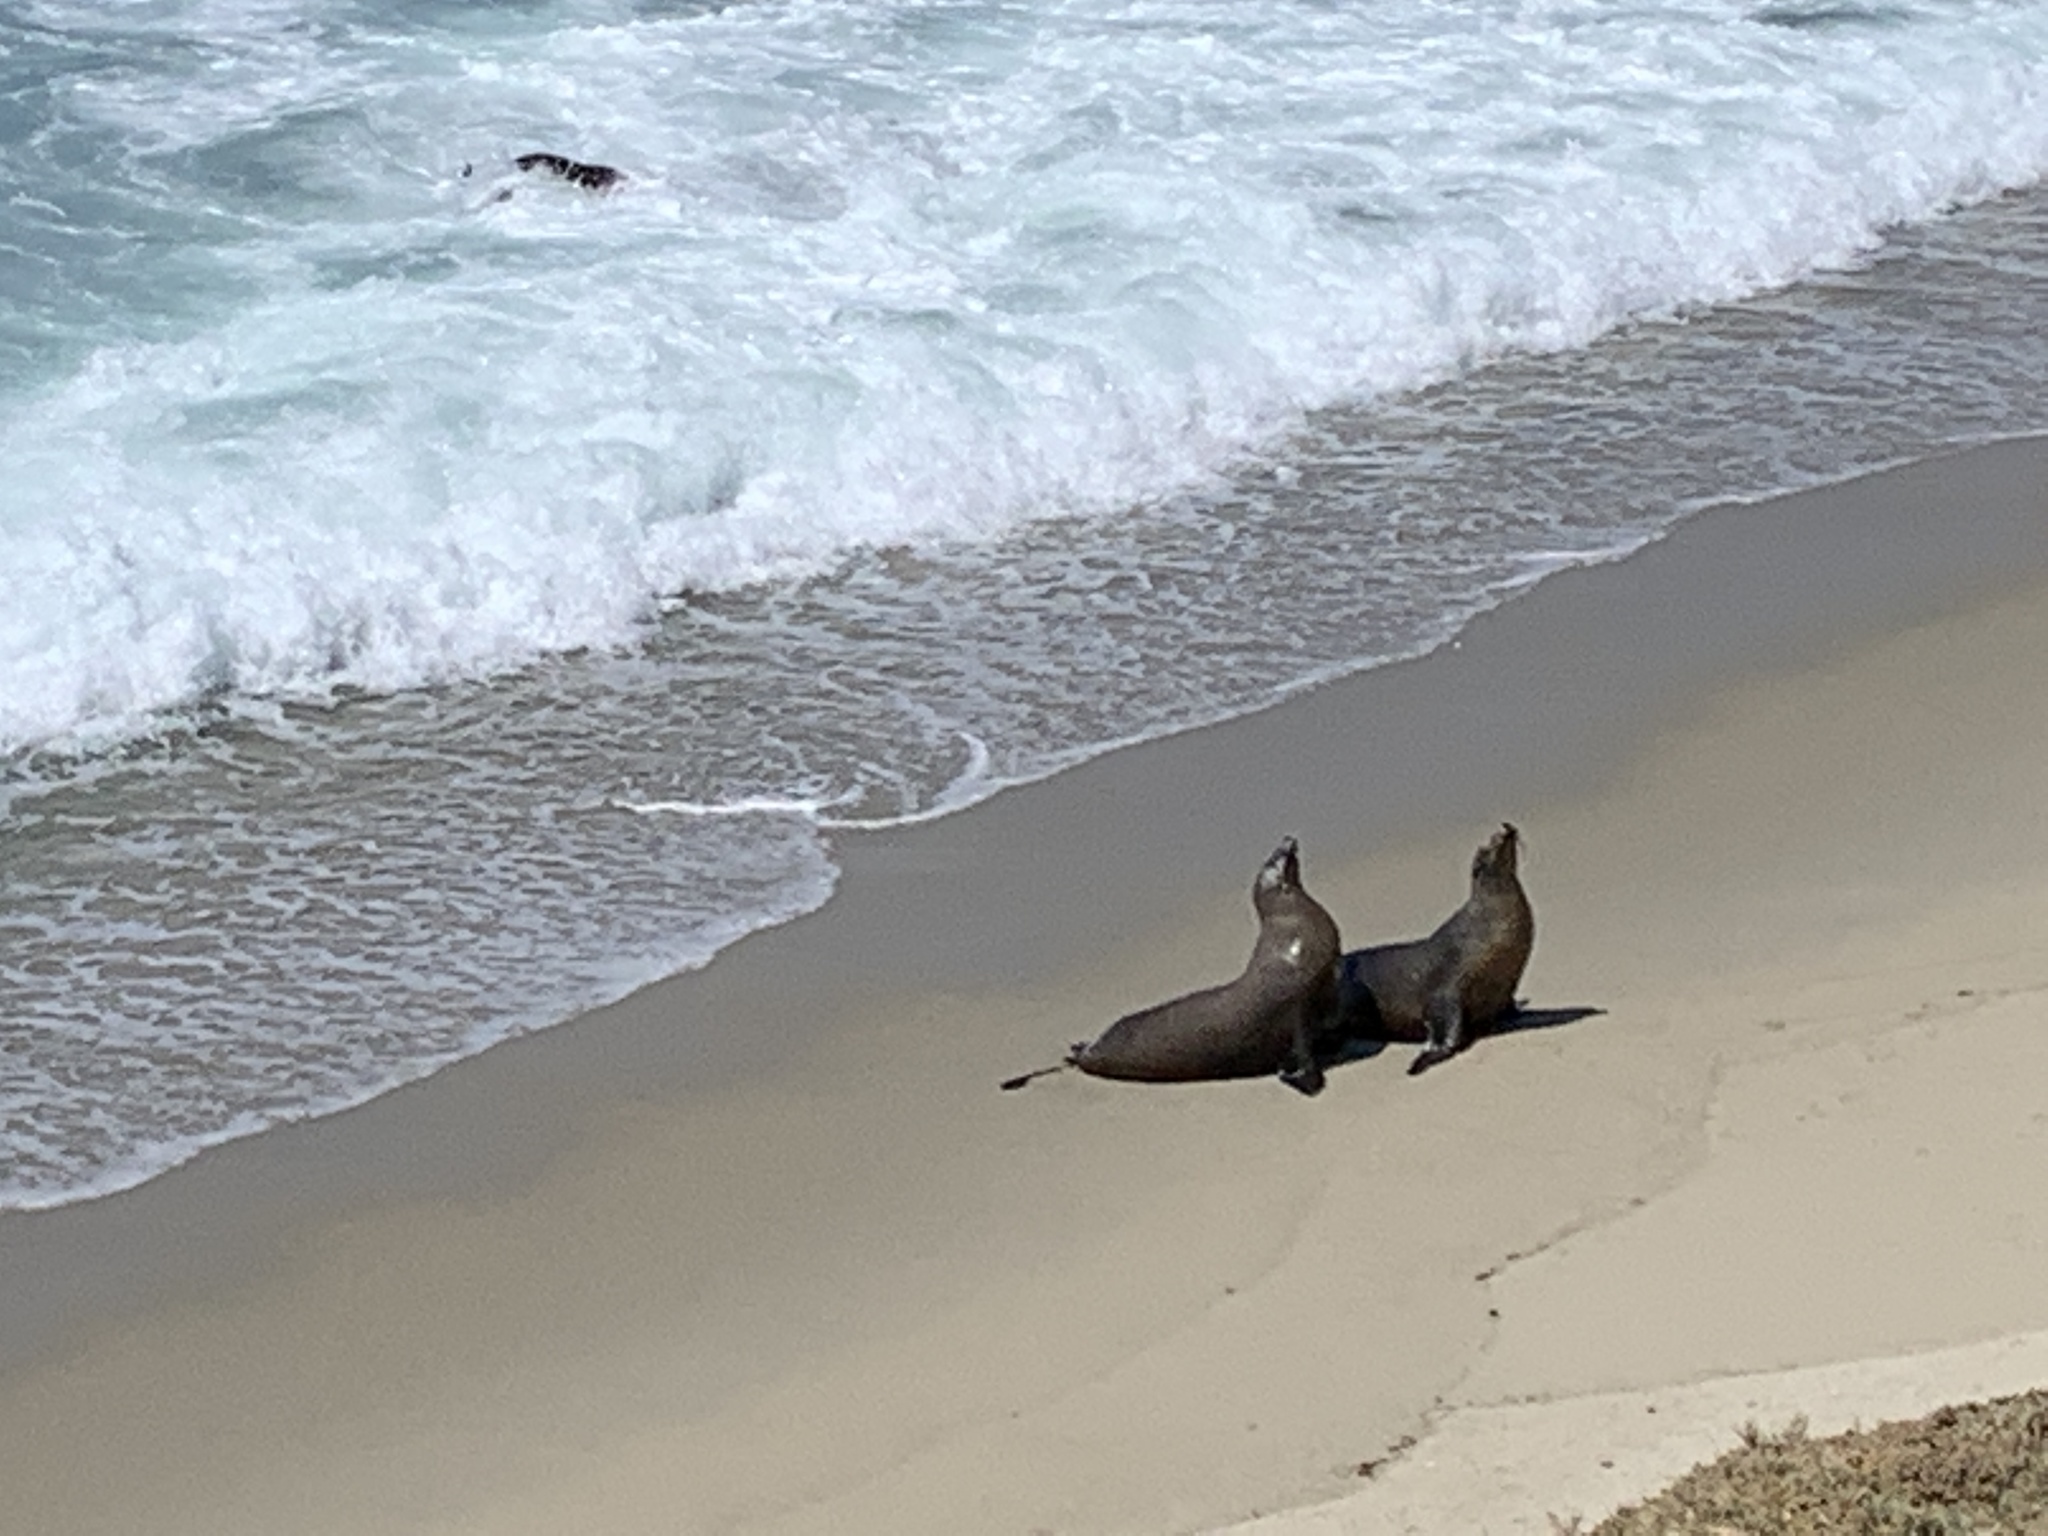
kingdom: Animalia
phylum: Chordata
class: Mammalia
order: Carnivora
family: Otariidae
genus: Zalophus
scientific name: Zalophus californianus
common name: California sea lion
